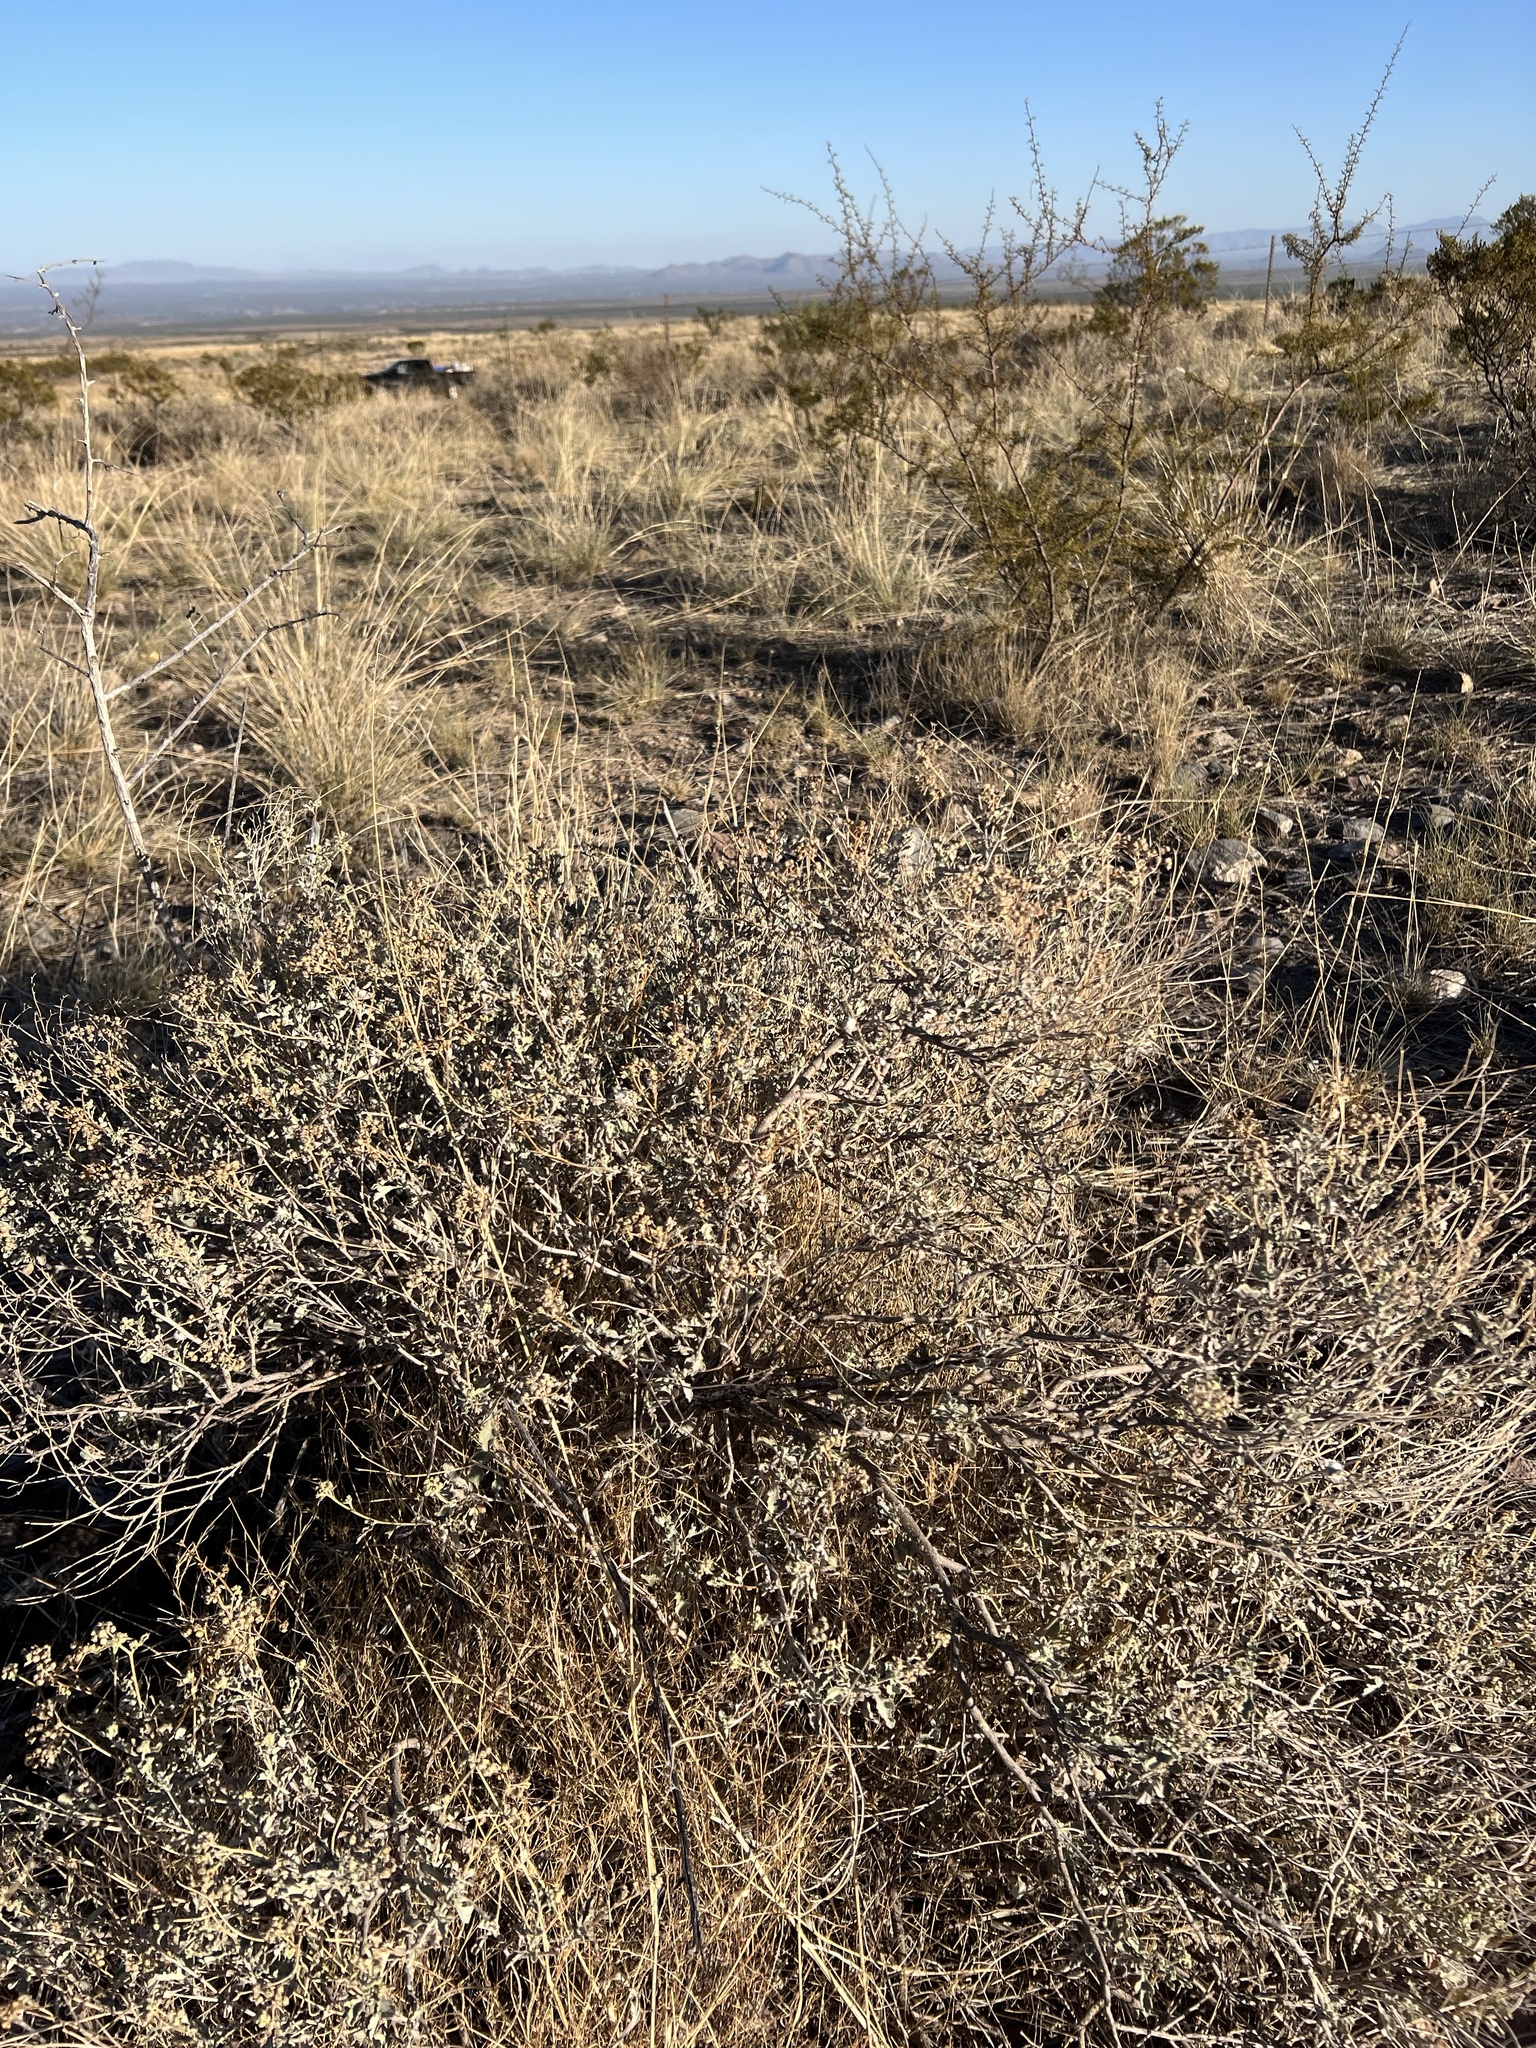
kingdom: Plantae
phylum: Tracheophyta
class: Magnoliopsida
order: Asterales
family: Asteraceae
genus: Parthenium
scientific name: Parthenium incanum
